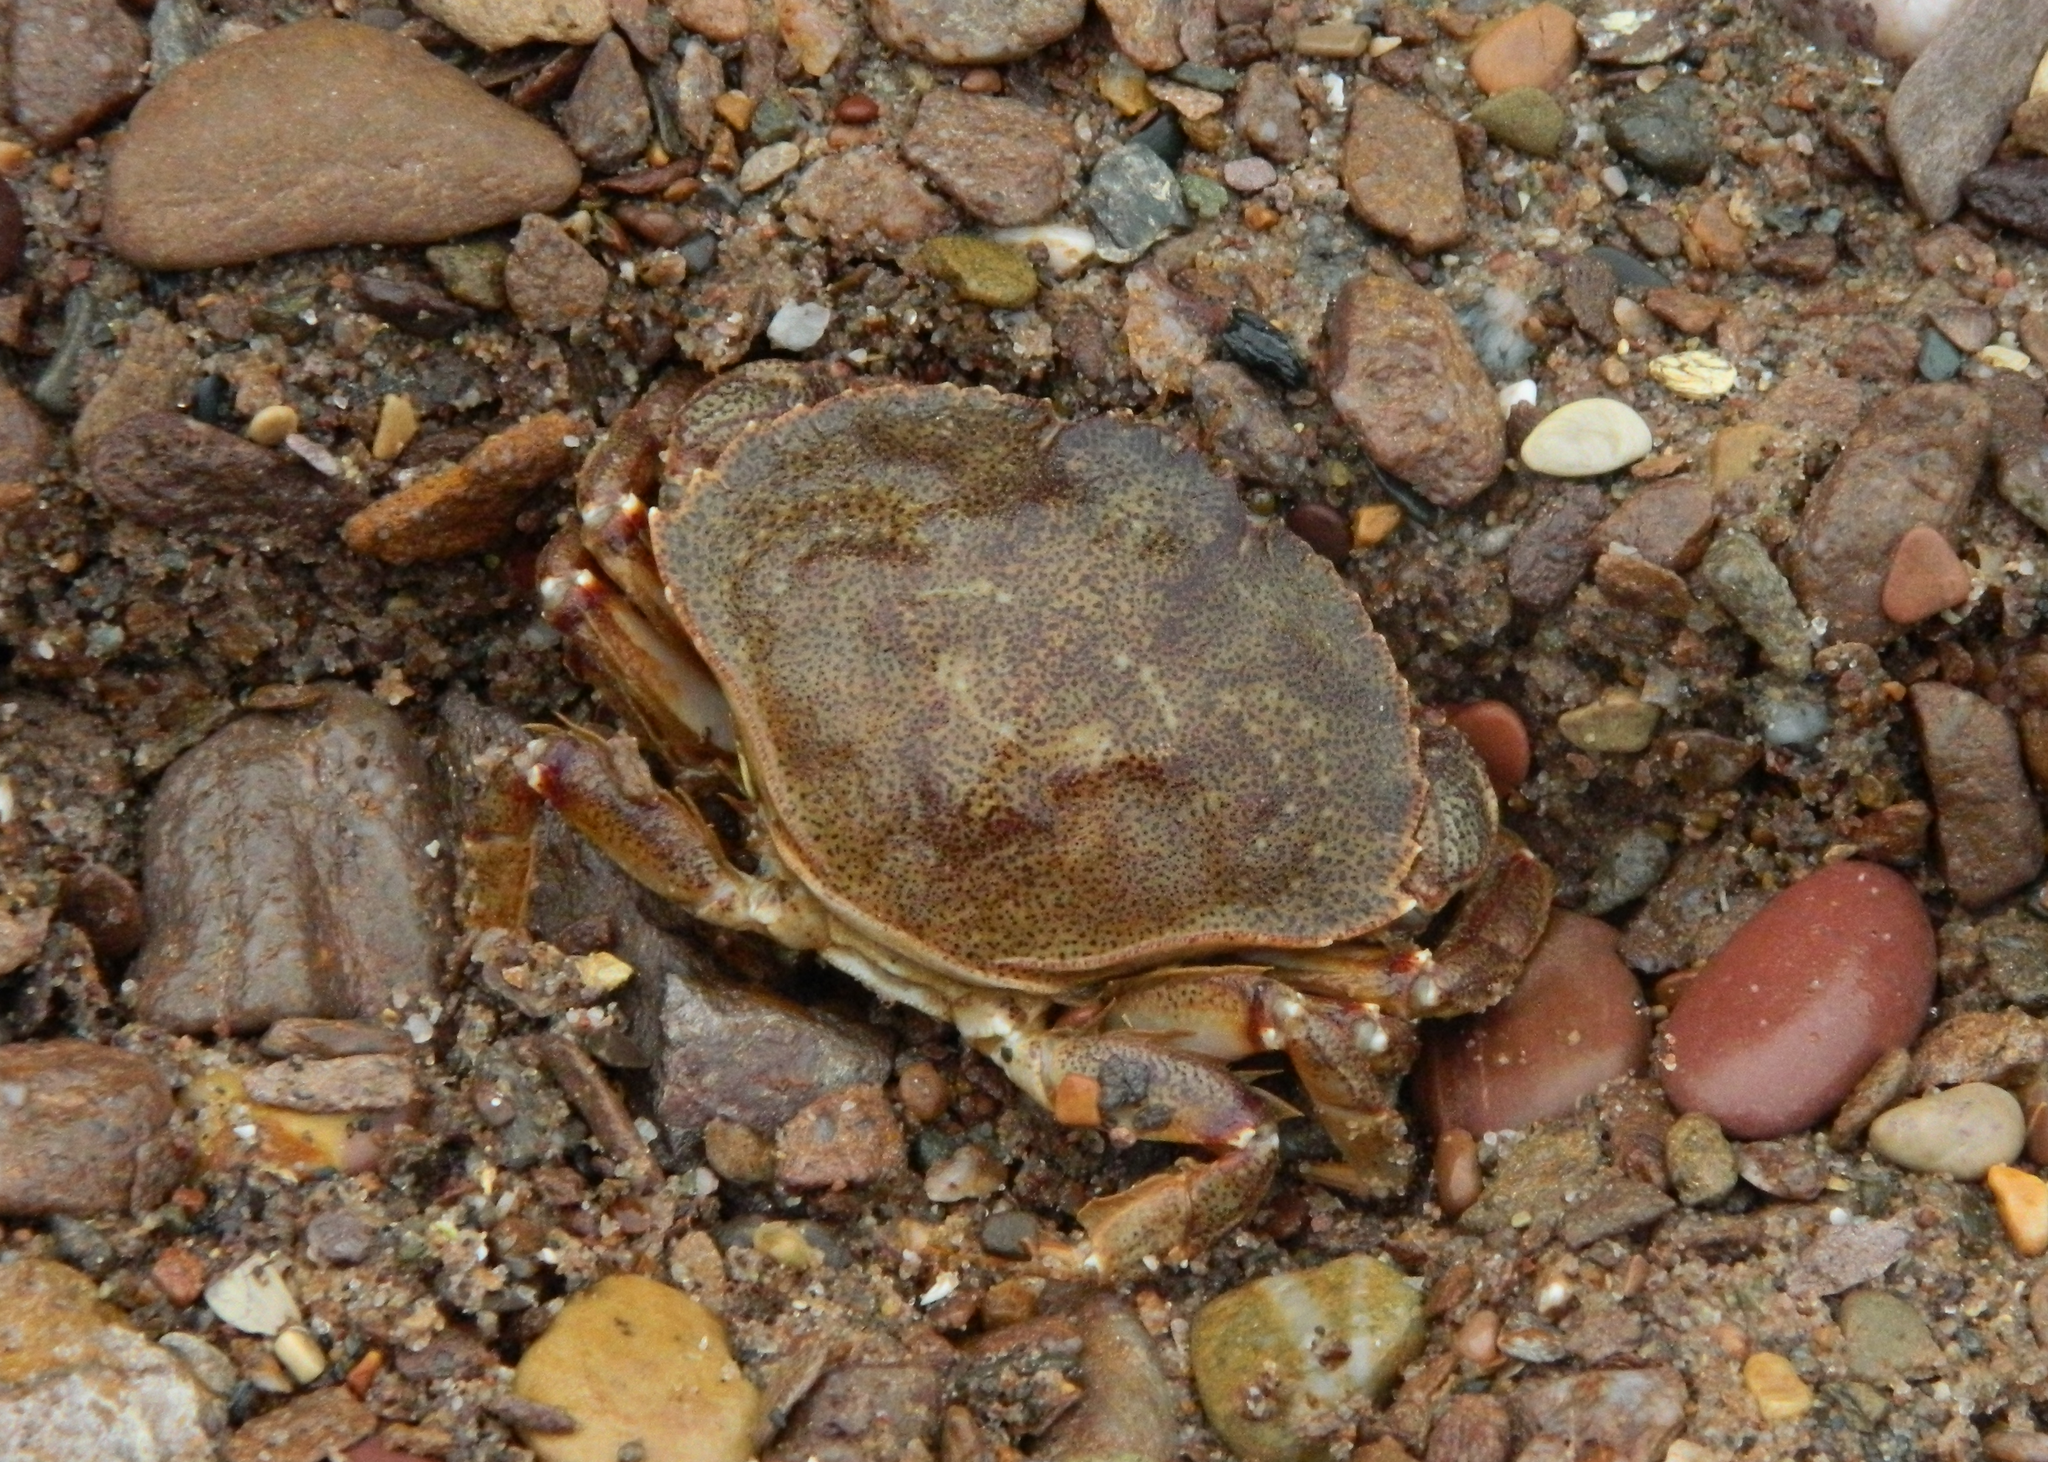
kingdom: Animalia
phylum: Arthropoda
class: Malacostraca
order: Decapoda
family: Cancridae
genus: Cancer
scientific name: Cancer irroratus
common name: Atlantic rock crab
